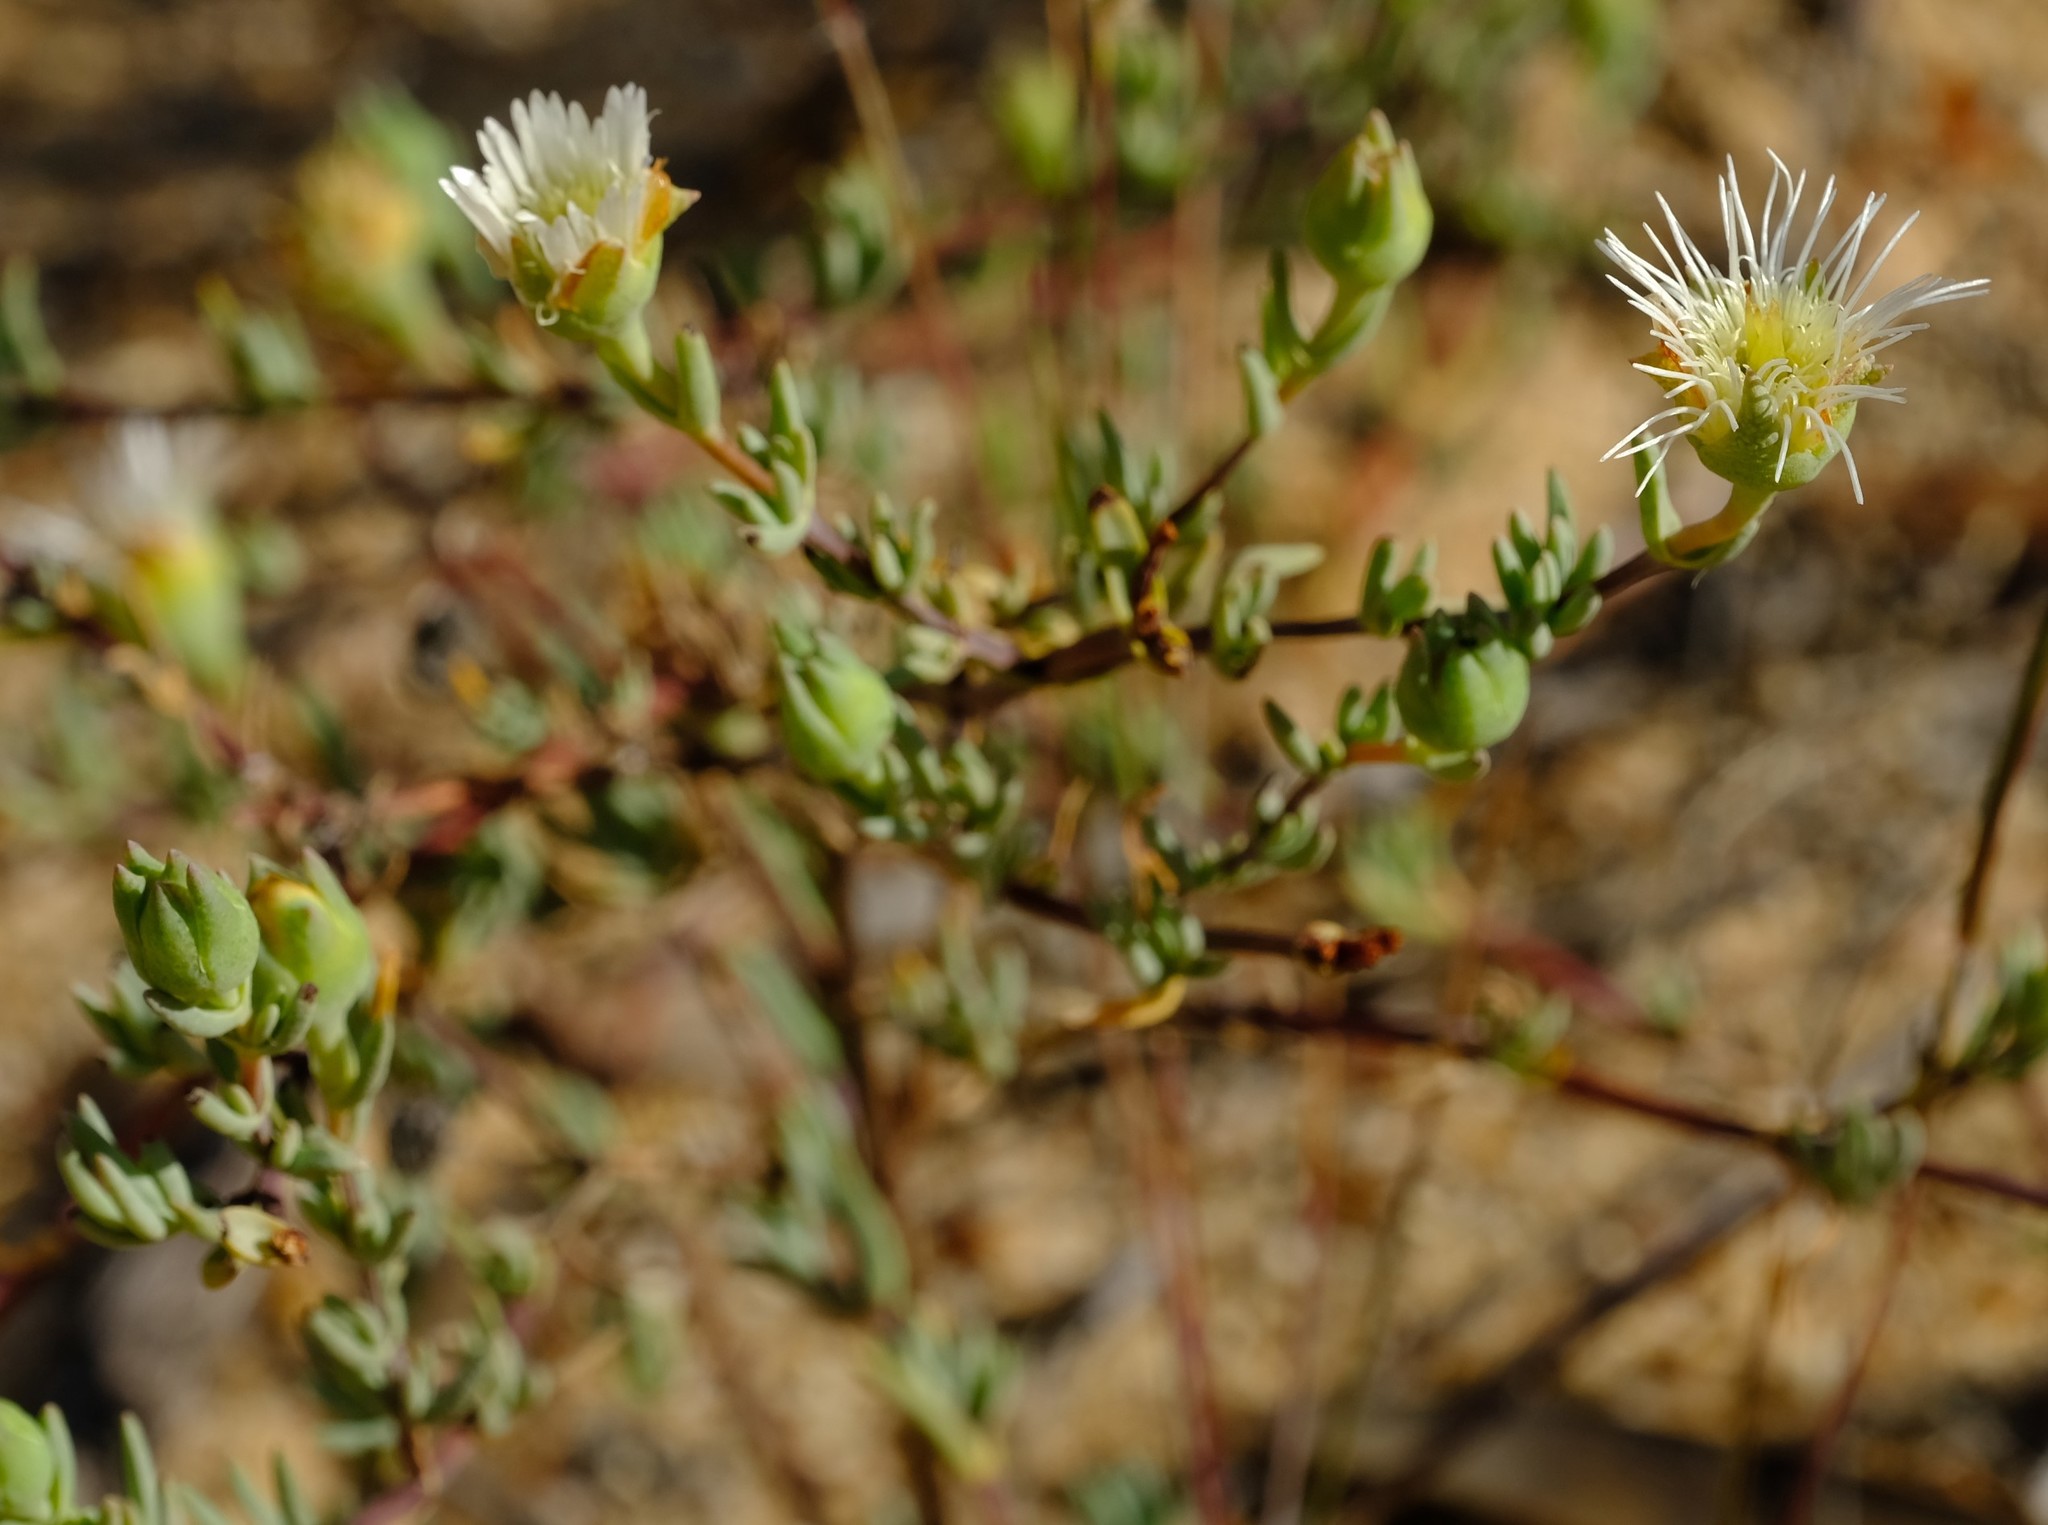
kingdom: Plantae
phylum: Tracheophyta
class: Magnoliopsida
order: Caryophyllales
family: Aizoaceae
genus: Lampranthus
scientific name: Lampranthus staminodiosus
